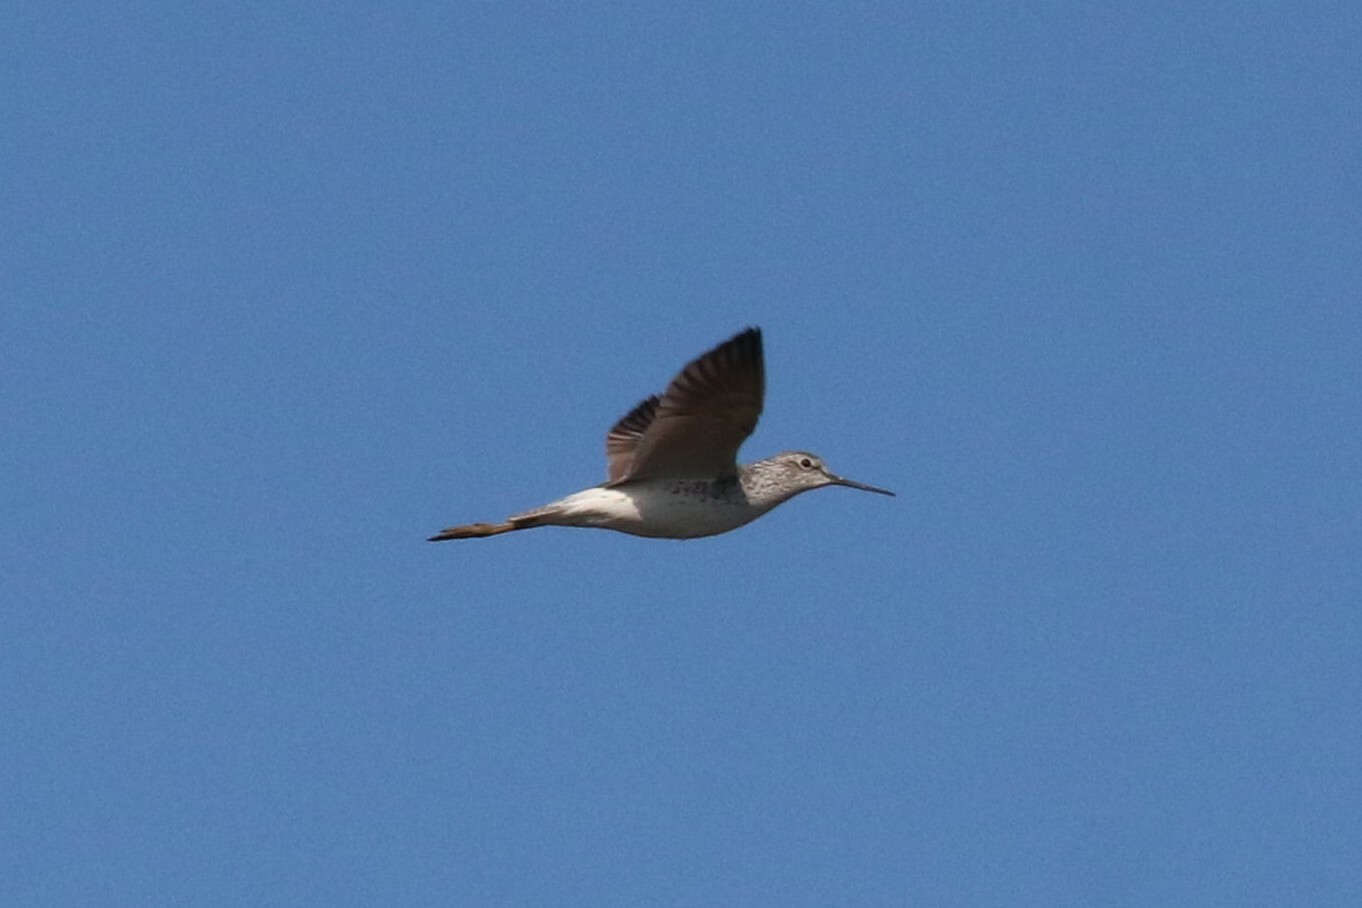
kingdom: Animalia
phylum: Chordata
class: Aves
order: Charadriiformes
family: Scolopacidae
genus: Tringa
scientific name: Tringa stagnatilis
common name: Marsh sandpiper
